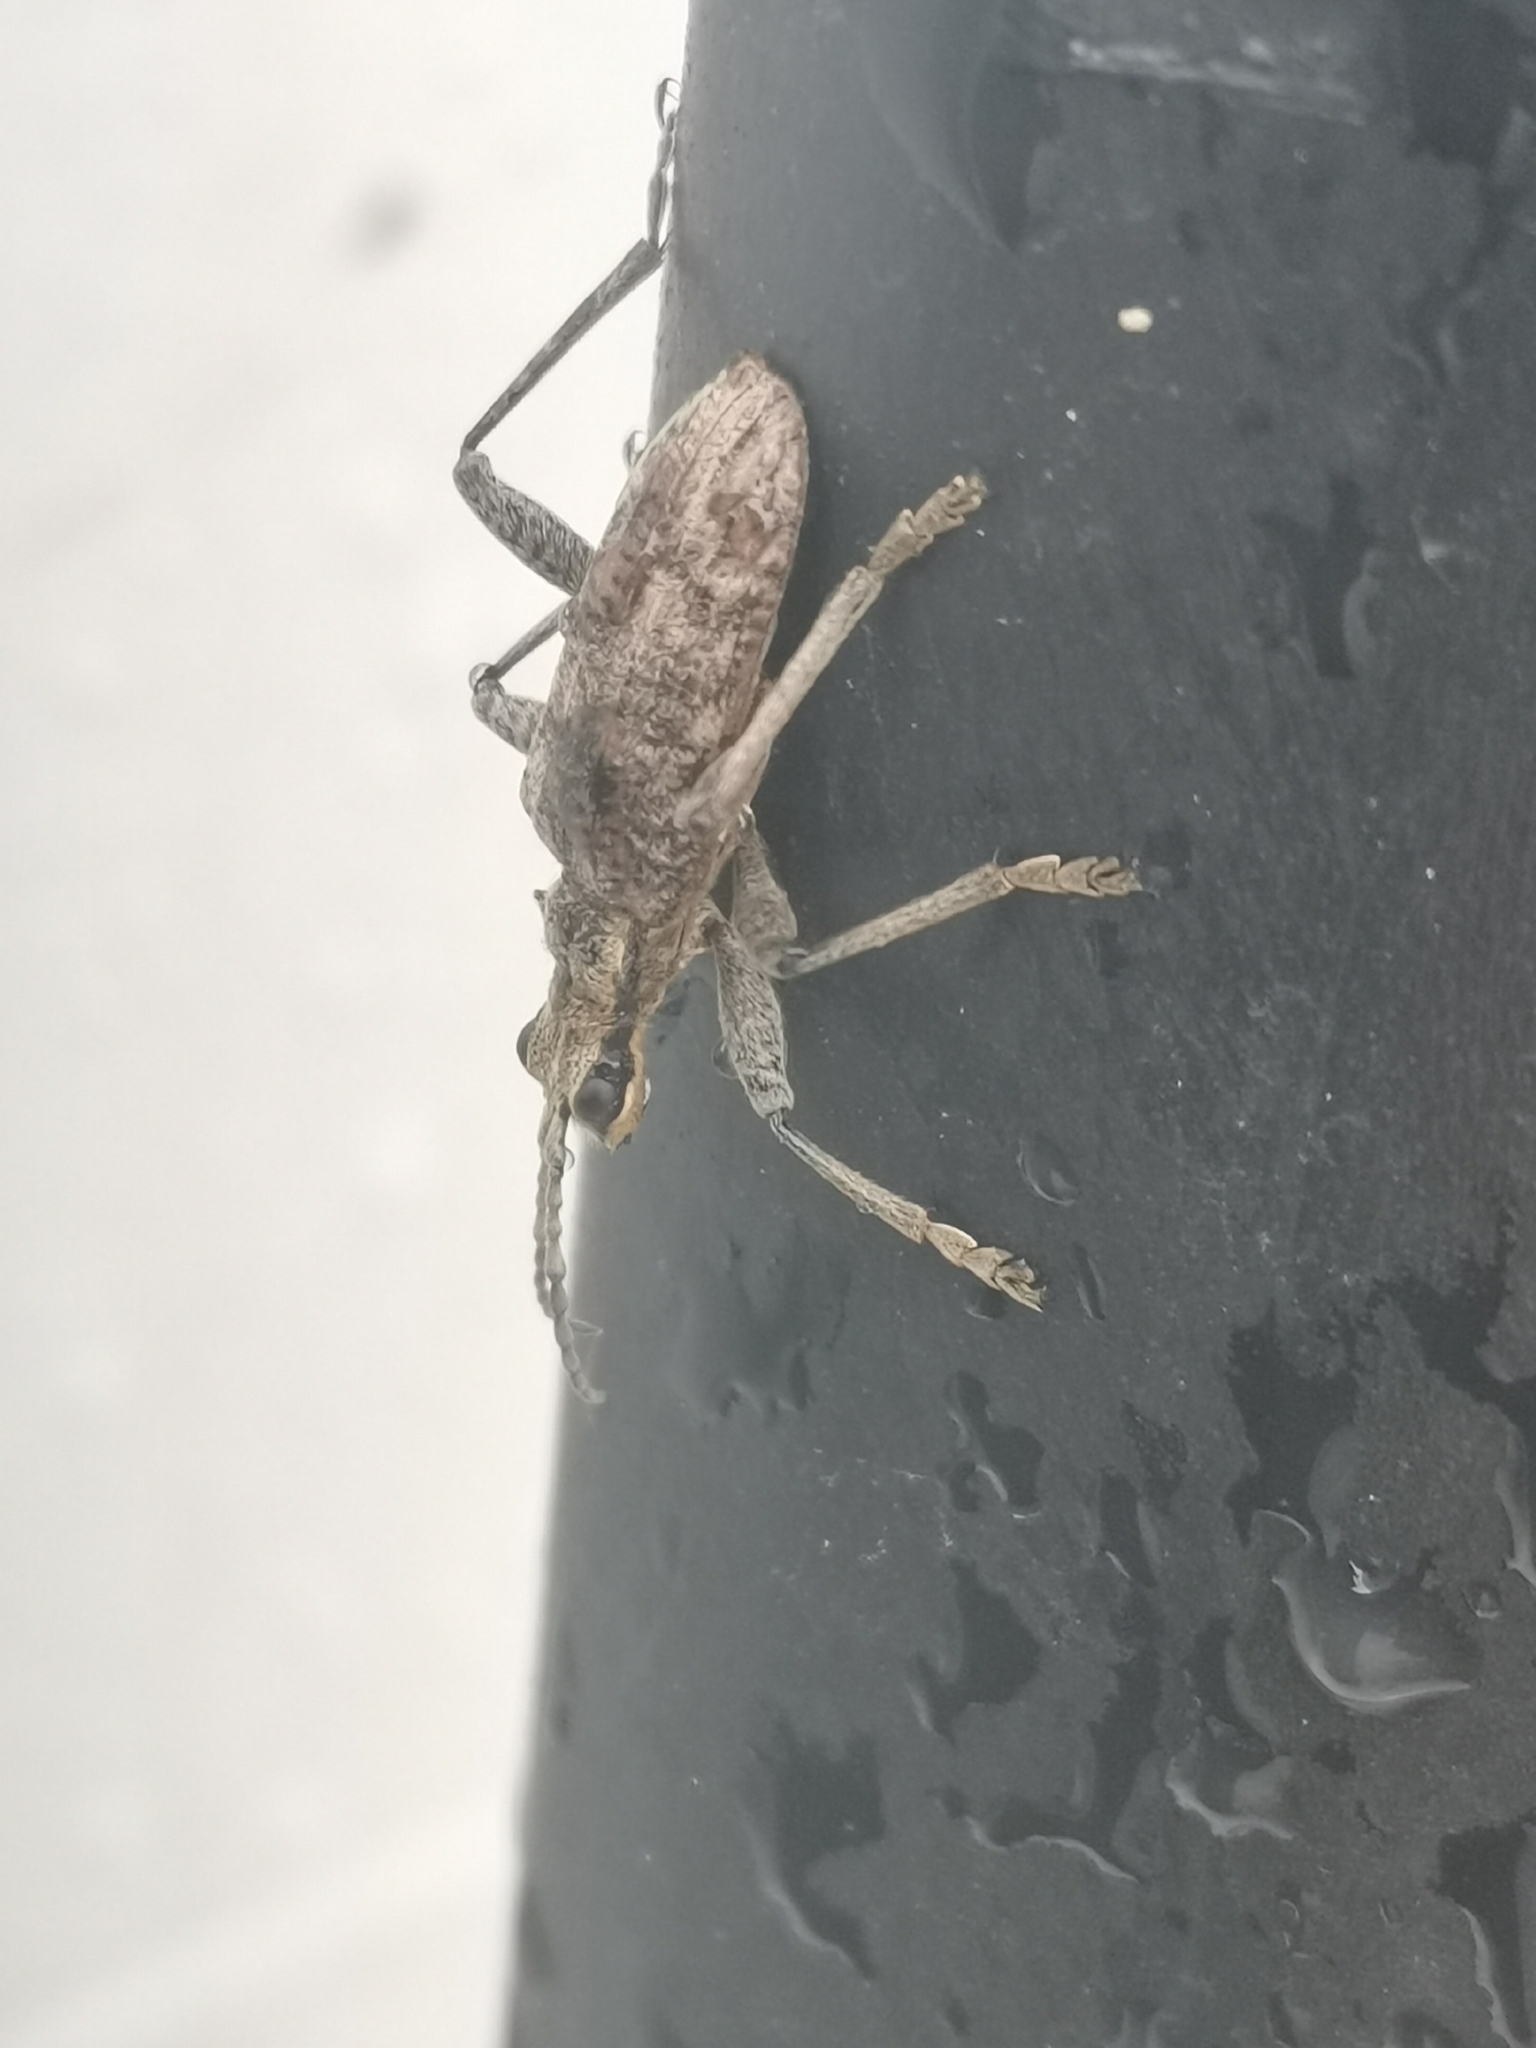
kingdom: Animalia
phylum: Arthropoda
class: Insecta
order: Coleoptera
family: Cerambycidae
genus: Rhagium
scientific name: Rhagium inquisitor
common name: Ribbed pine borer
